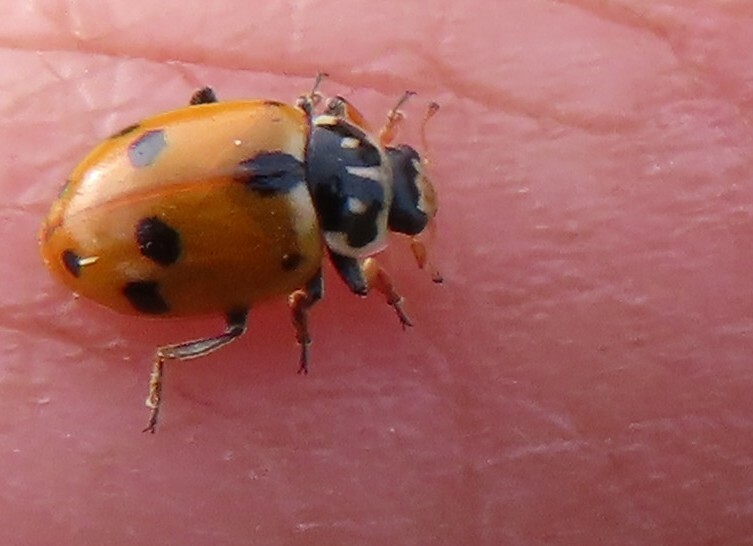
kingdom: Animalia
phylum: Arthropoda
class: Insecta
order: Coleoptera
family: Coccinellidae
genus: Hippodamia
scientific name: Hippodamia variegata
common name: Ladybird beetle
